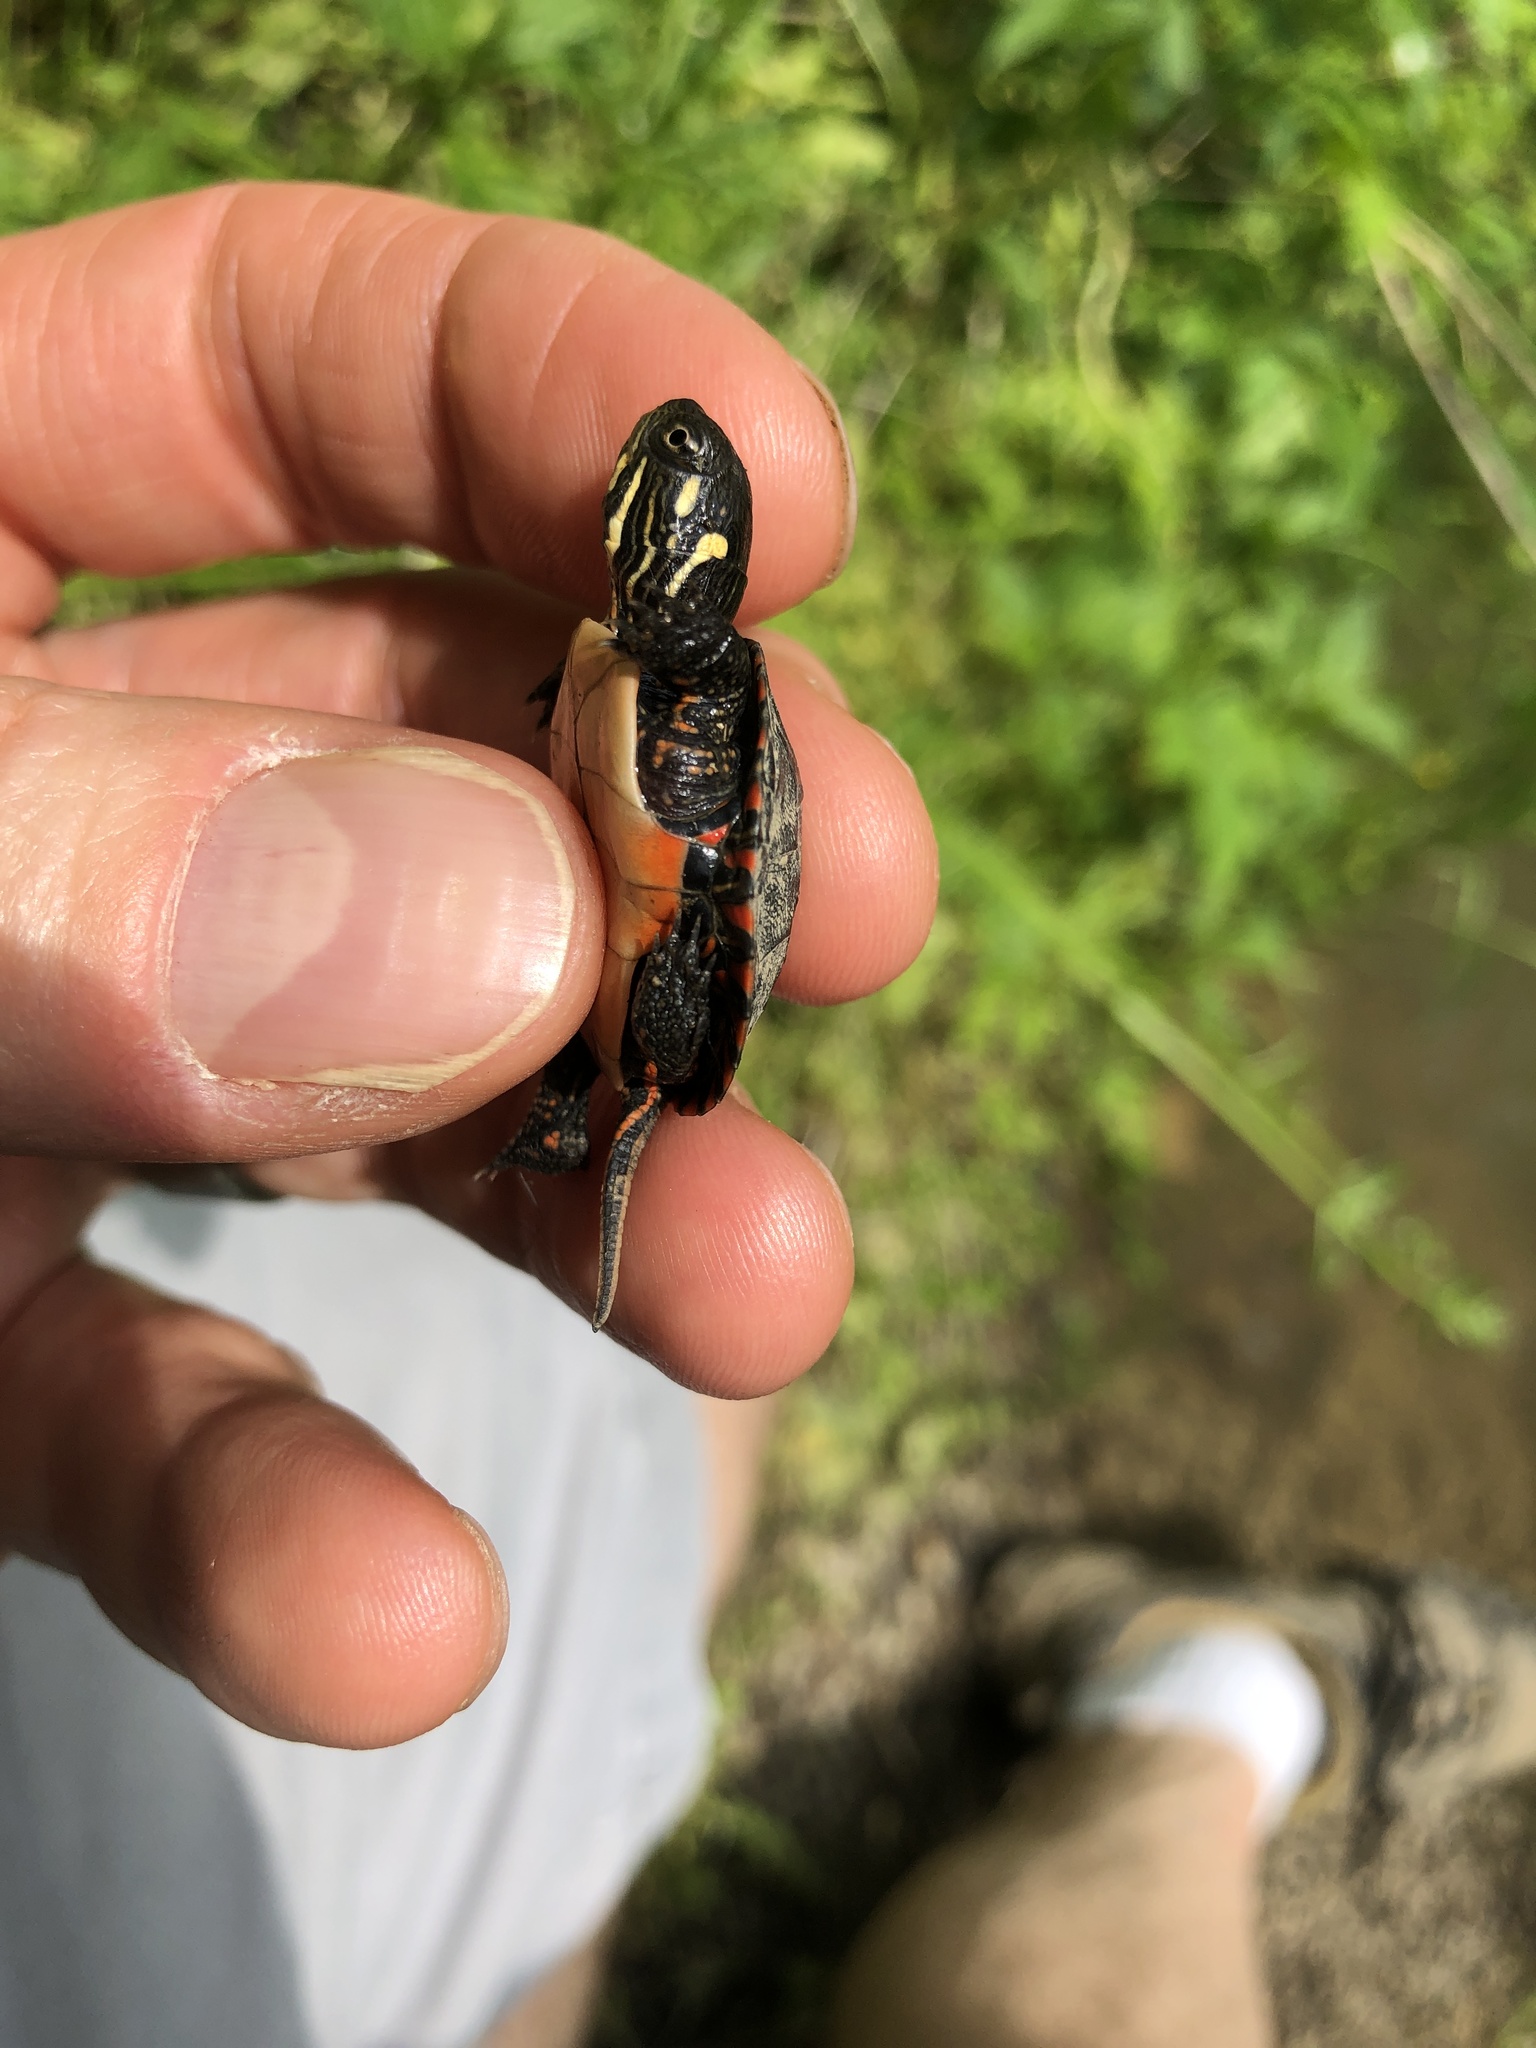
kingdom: Animalia
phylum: Chordata
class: Testudines
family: Emydidae
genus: Chrysemys
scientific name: Chrysemys picta
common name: Painted turtle
